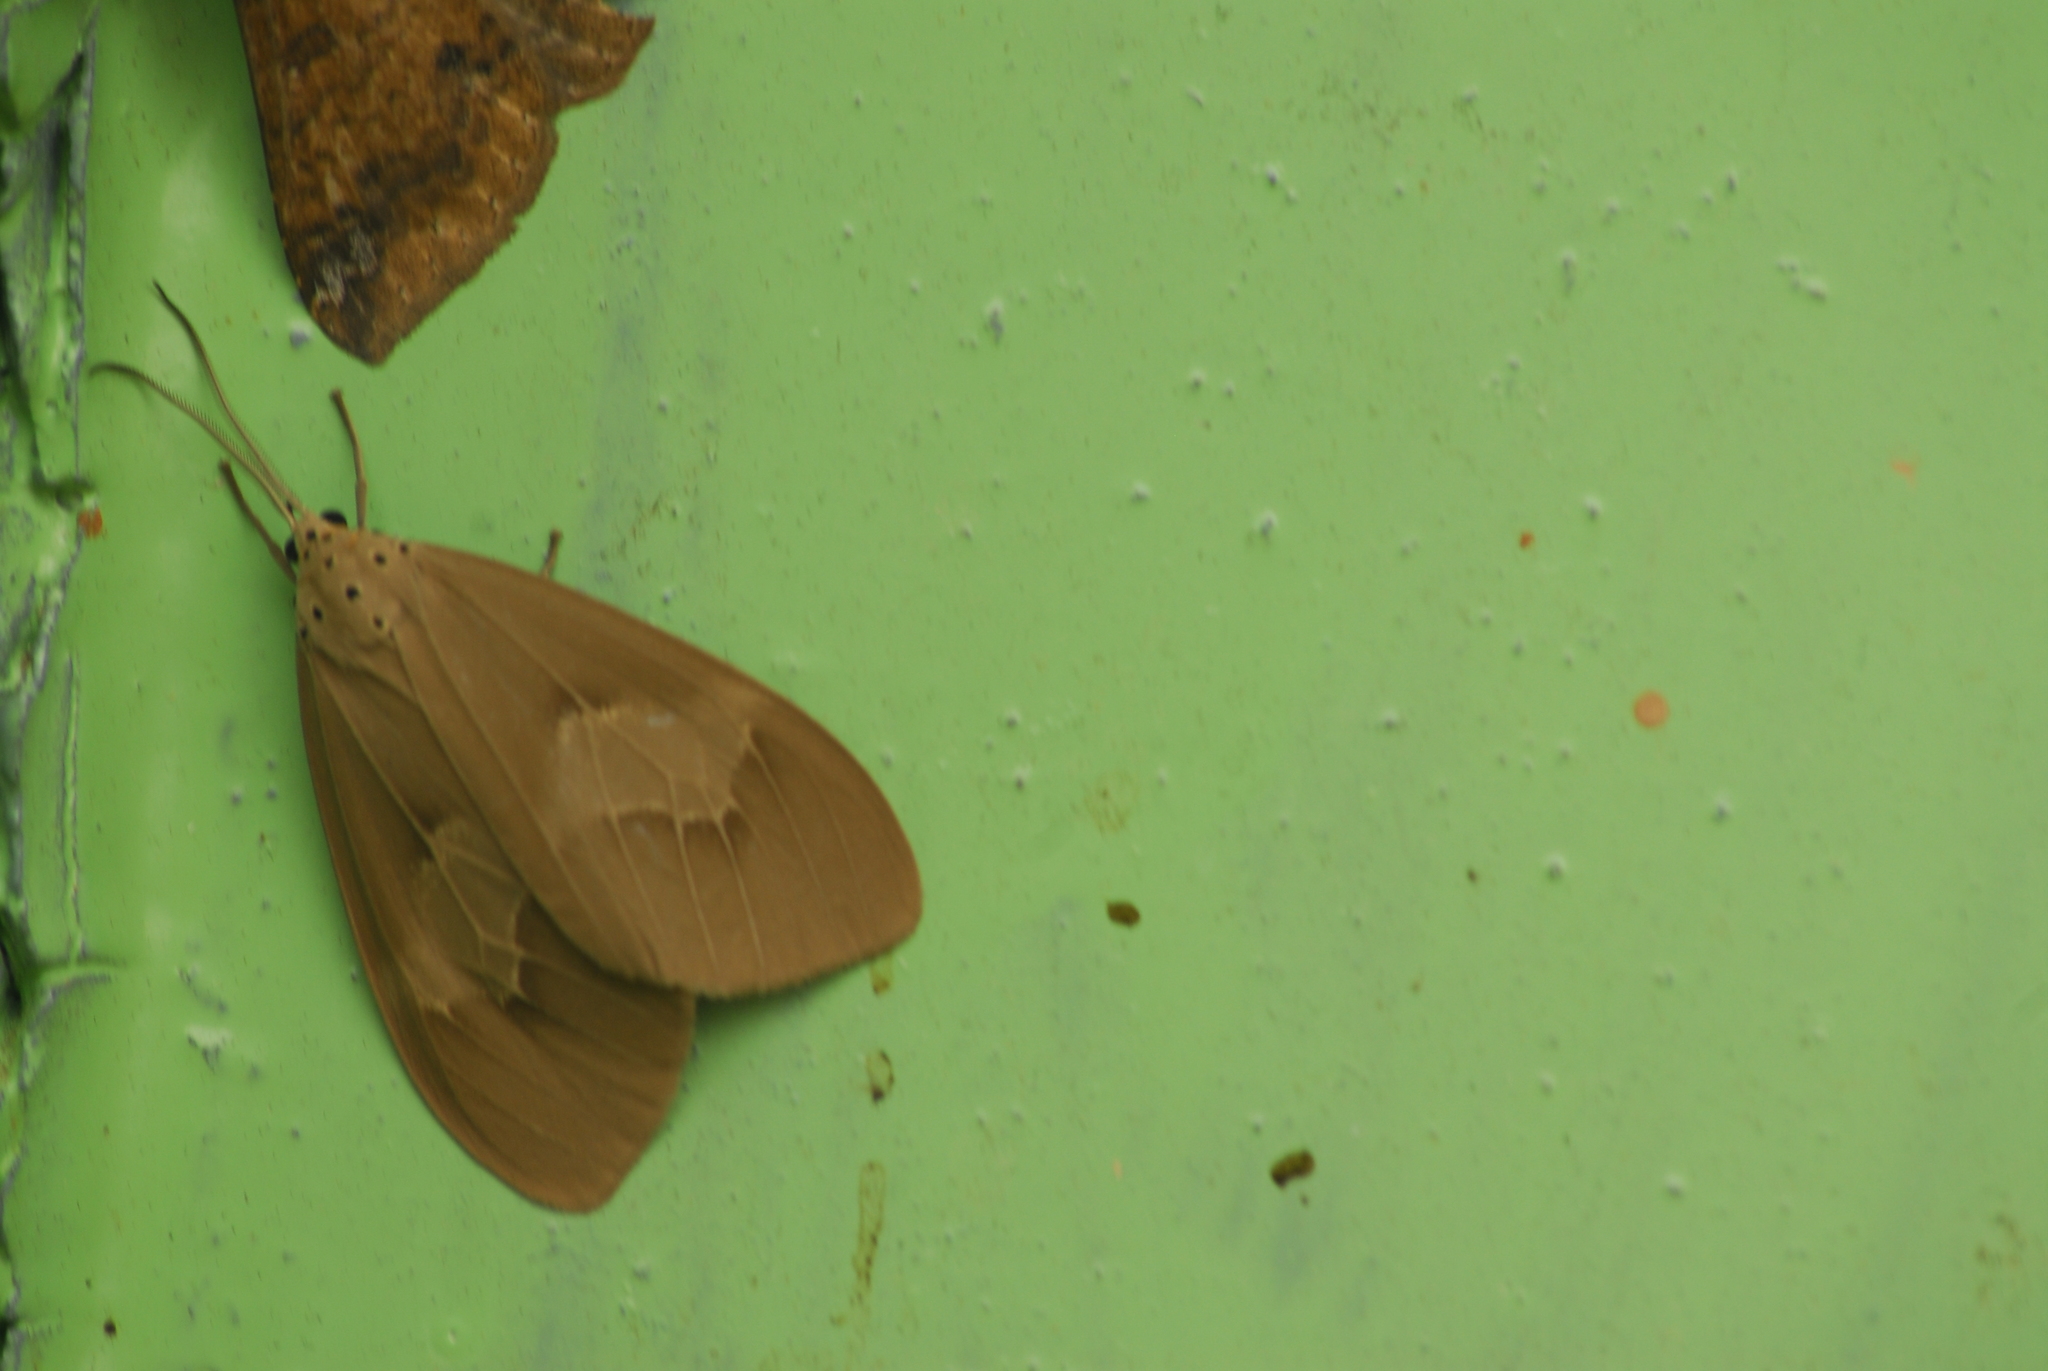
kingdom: Animalia
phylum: Arthropoda
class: Insecta
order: Lepidoptera
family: Erebidae
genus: Paraplastis
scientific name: Paraplastis hampsoni
